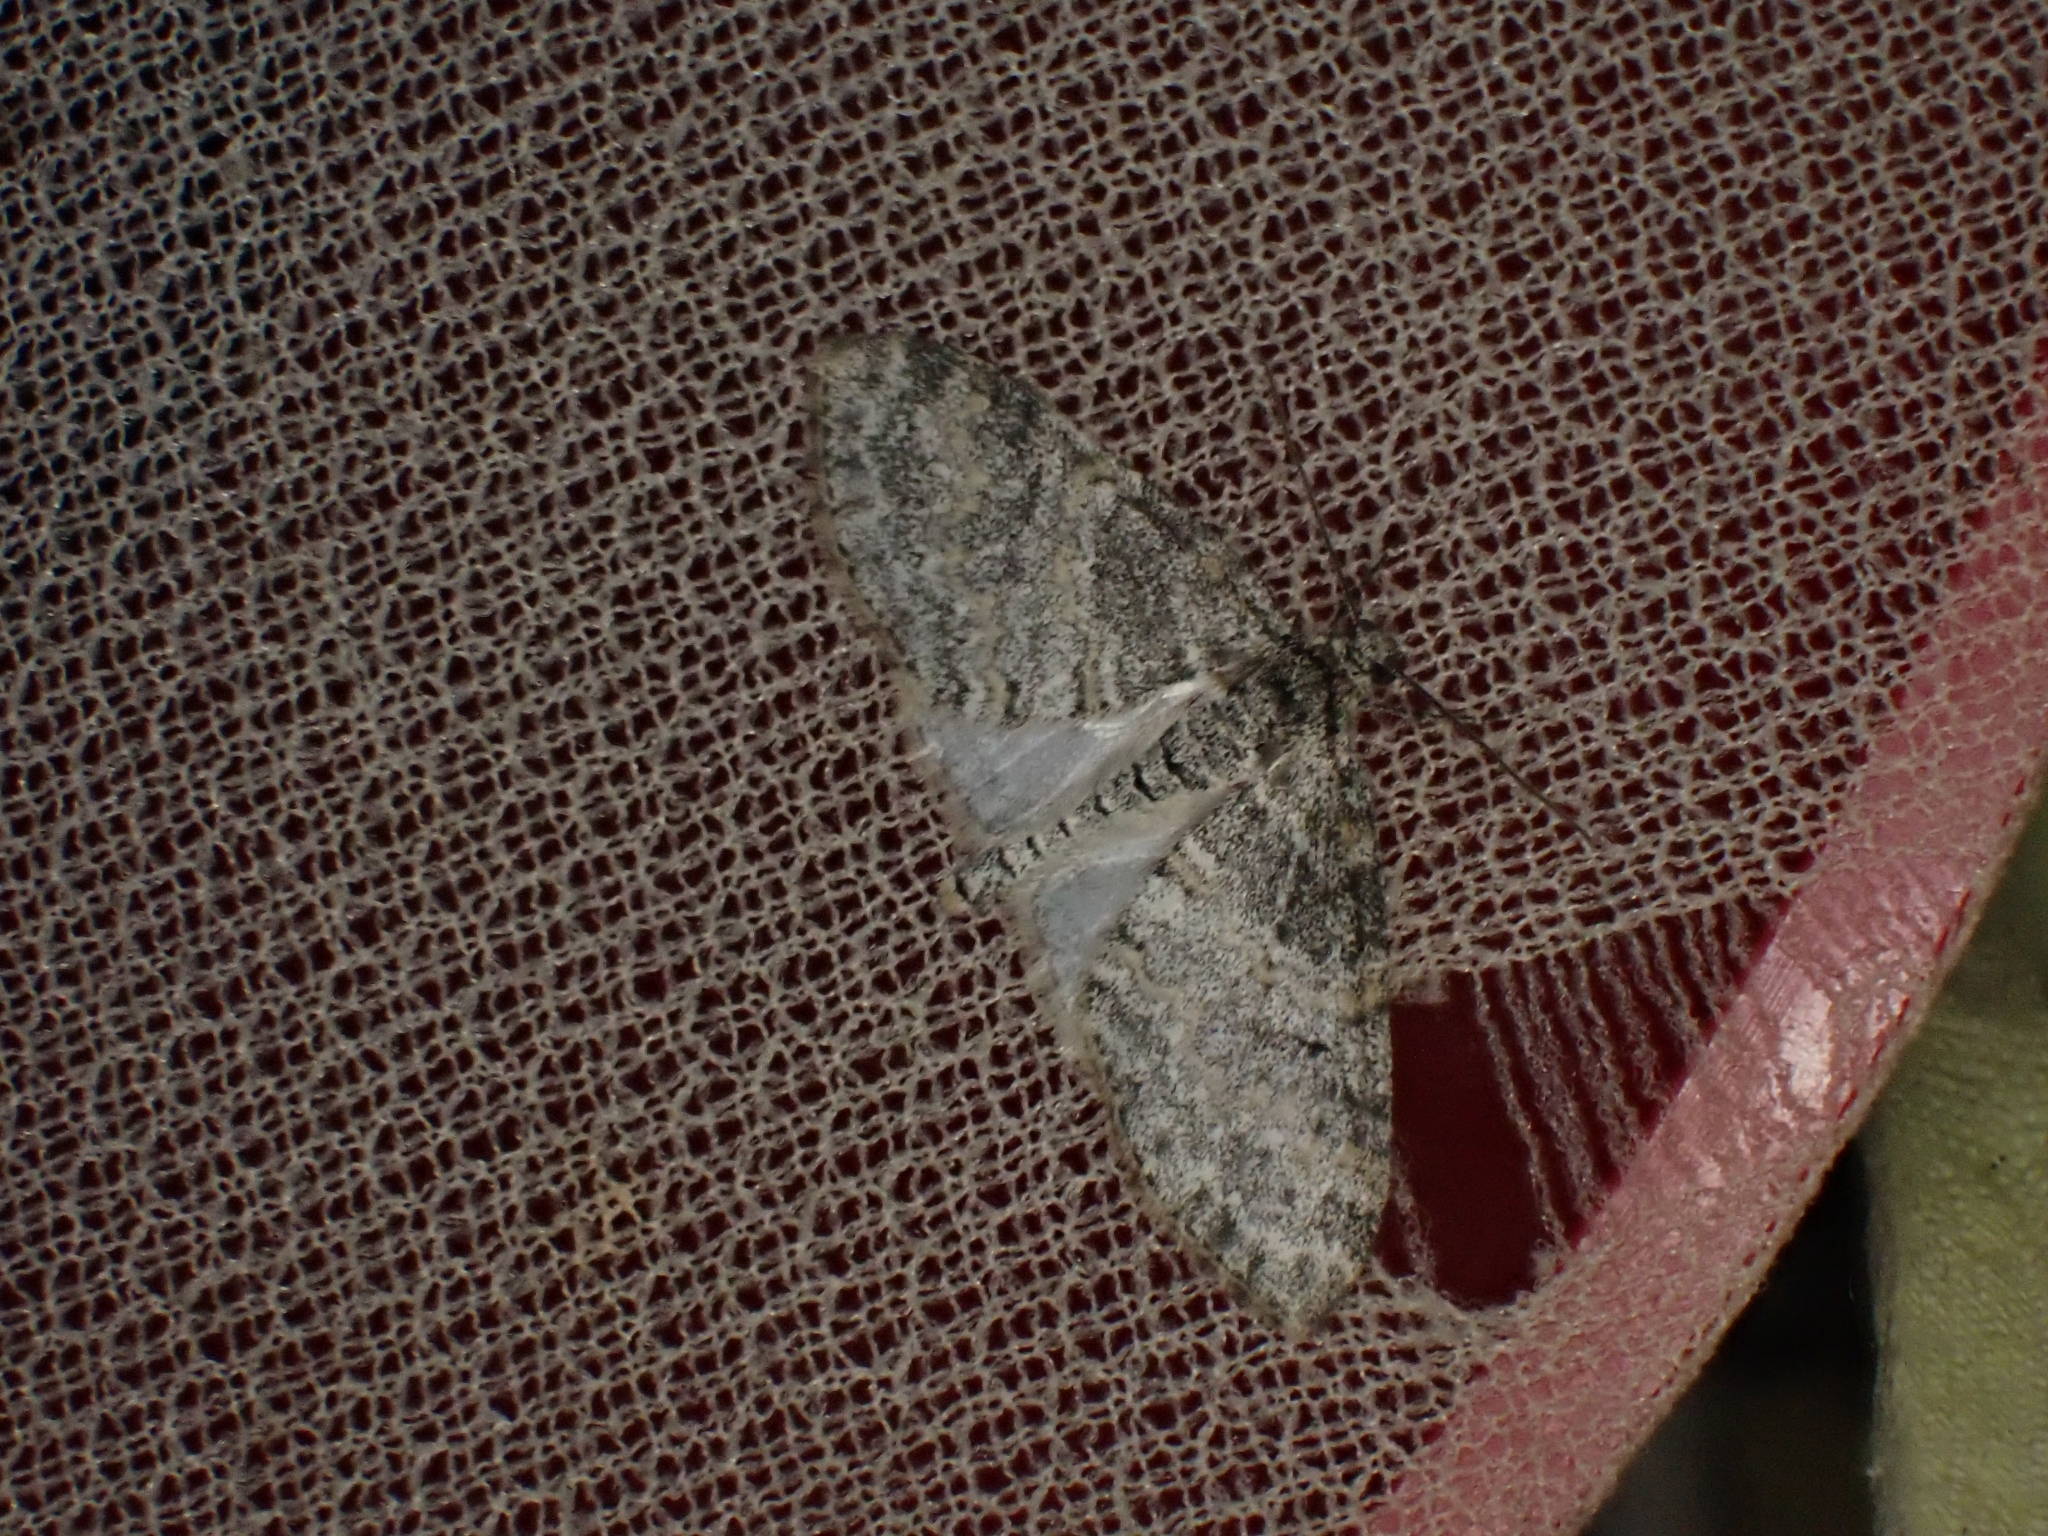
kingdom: Animalia
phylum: Arthropoda
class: Insecta
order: Lepidoptera
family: Geometridae
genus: Lobophora
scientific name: Lobophora halterata
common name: Seraphim
